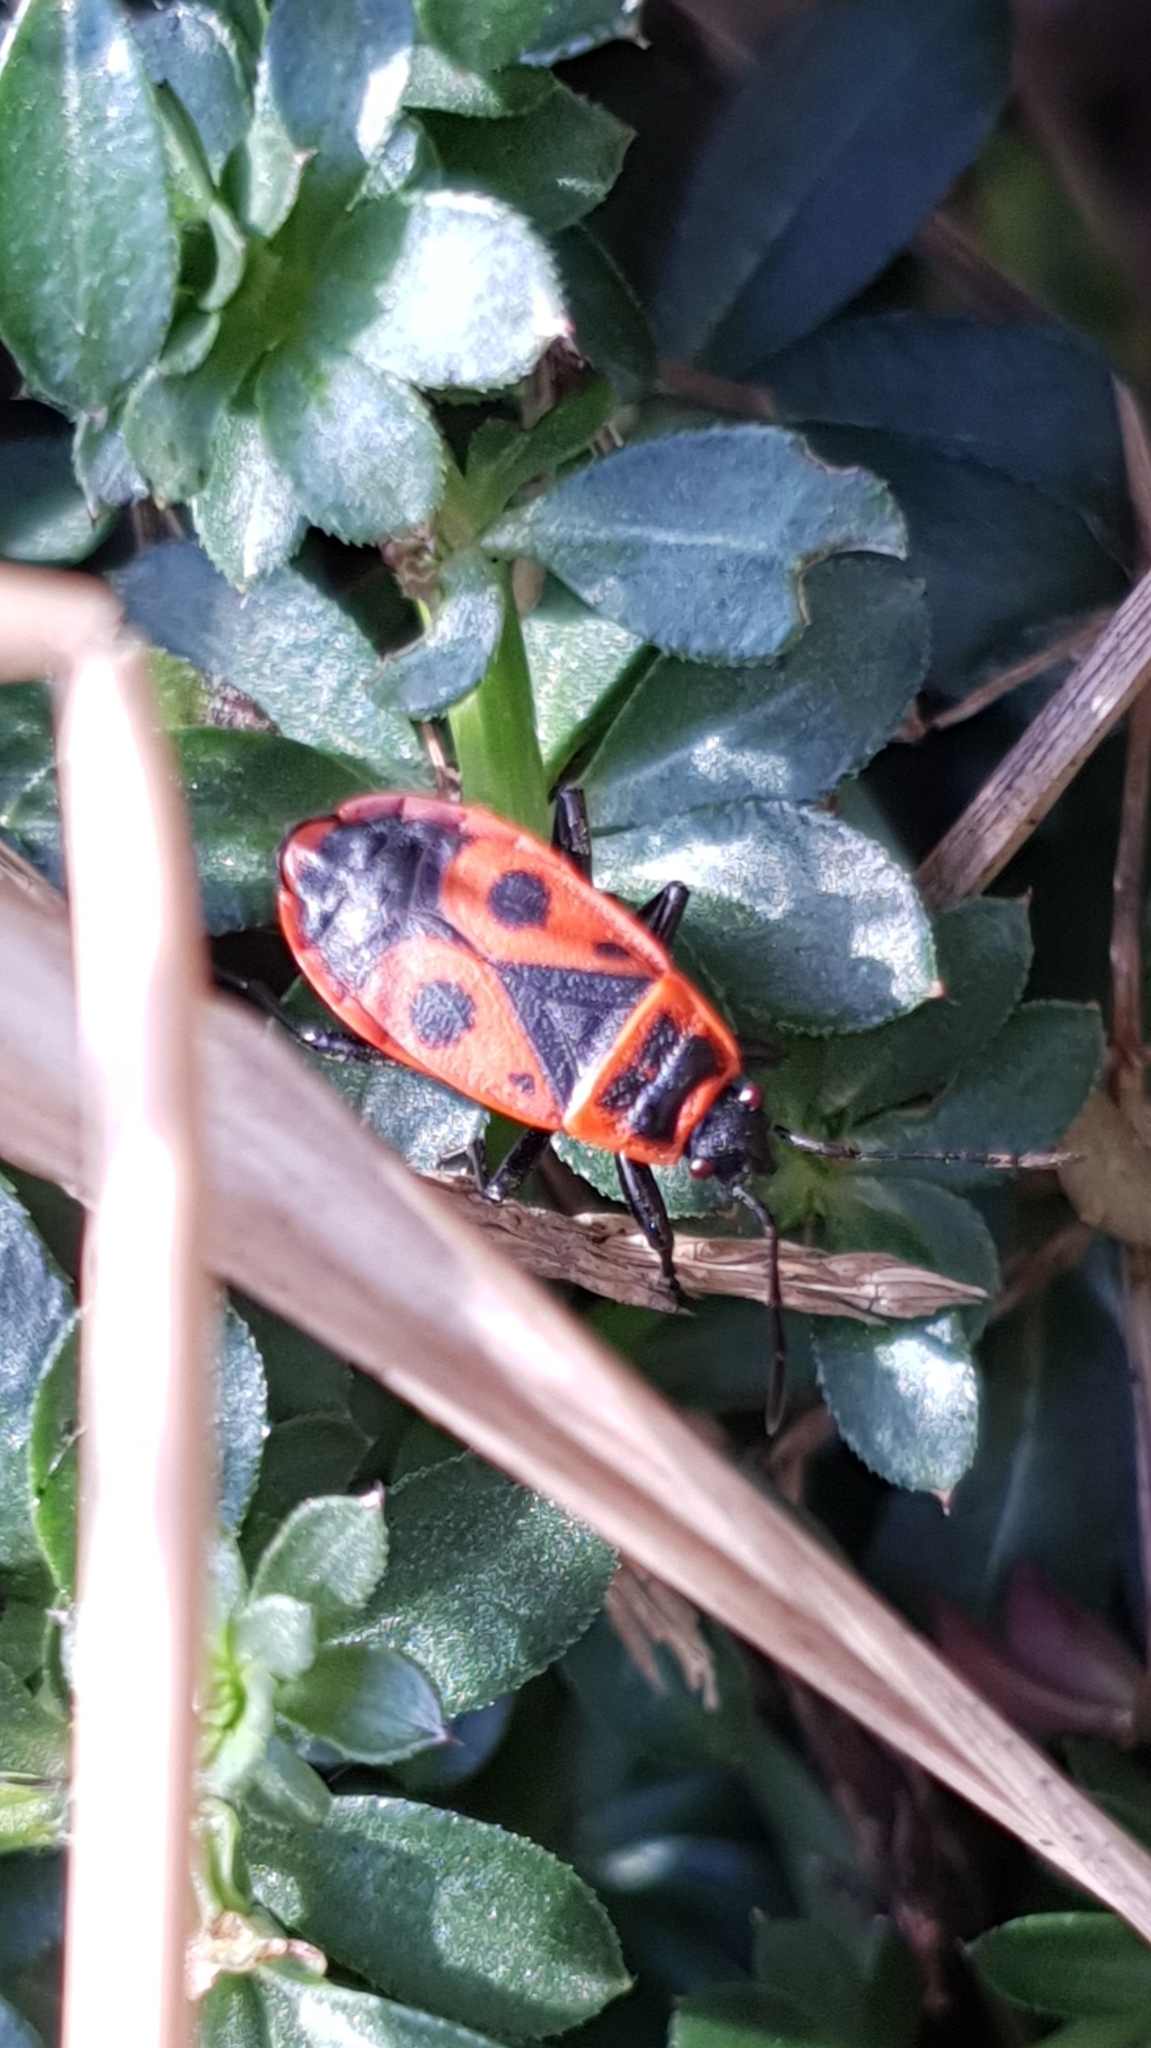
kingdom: Animalia
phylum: Arthropoda
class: Insecta
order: Hemiptera
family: Pyrrhocoridae
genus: Pyrrhocoris
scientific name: Pyrrhocoris apterus
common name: Firebug
